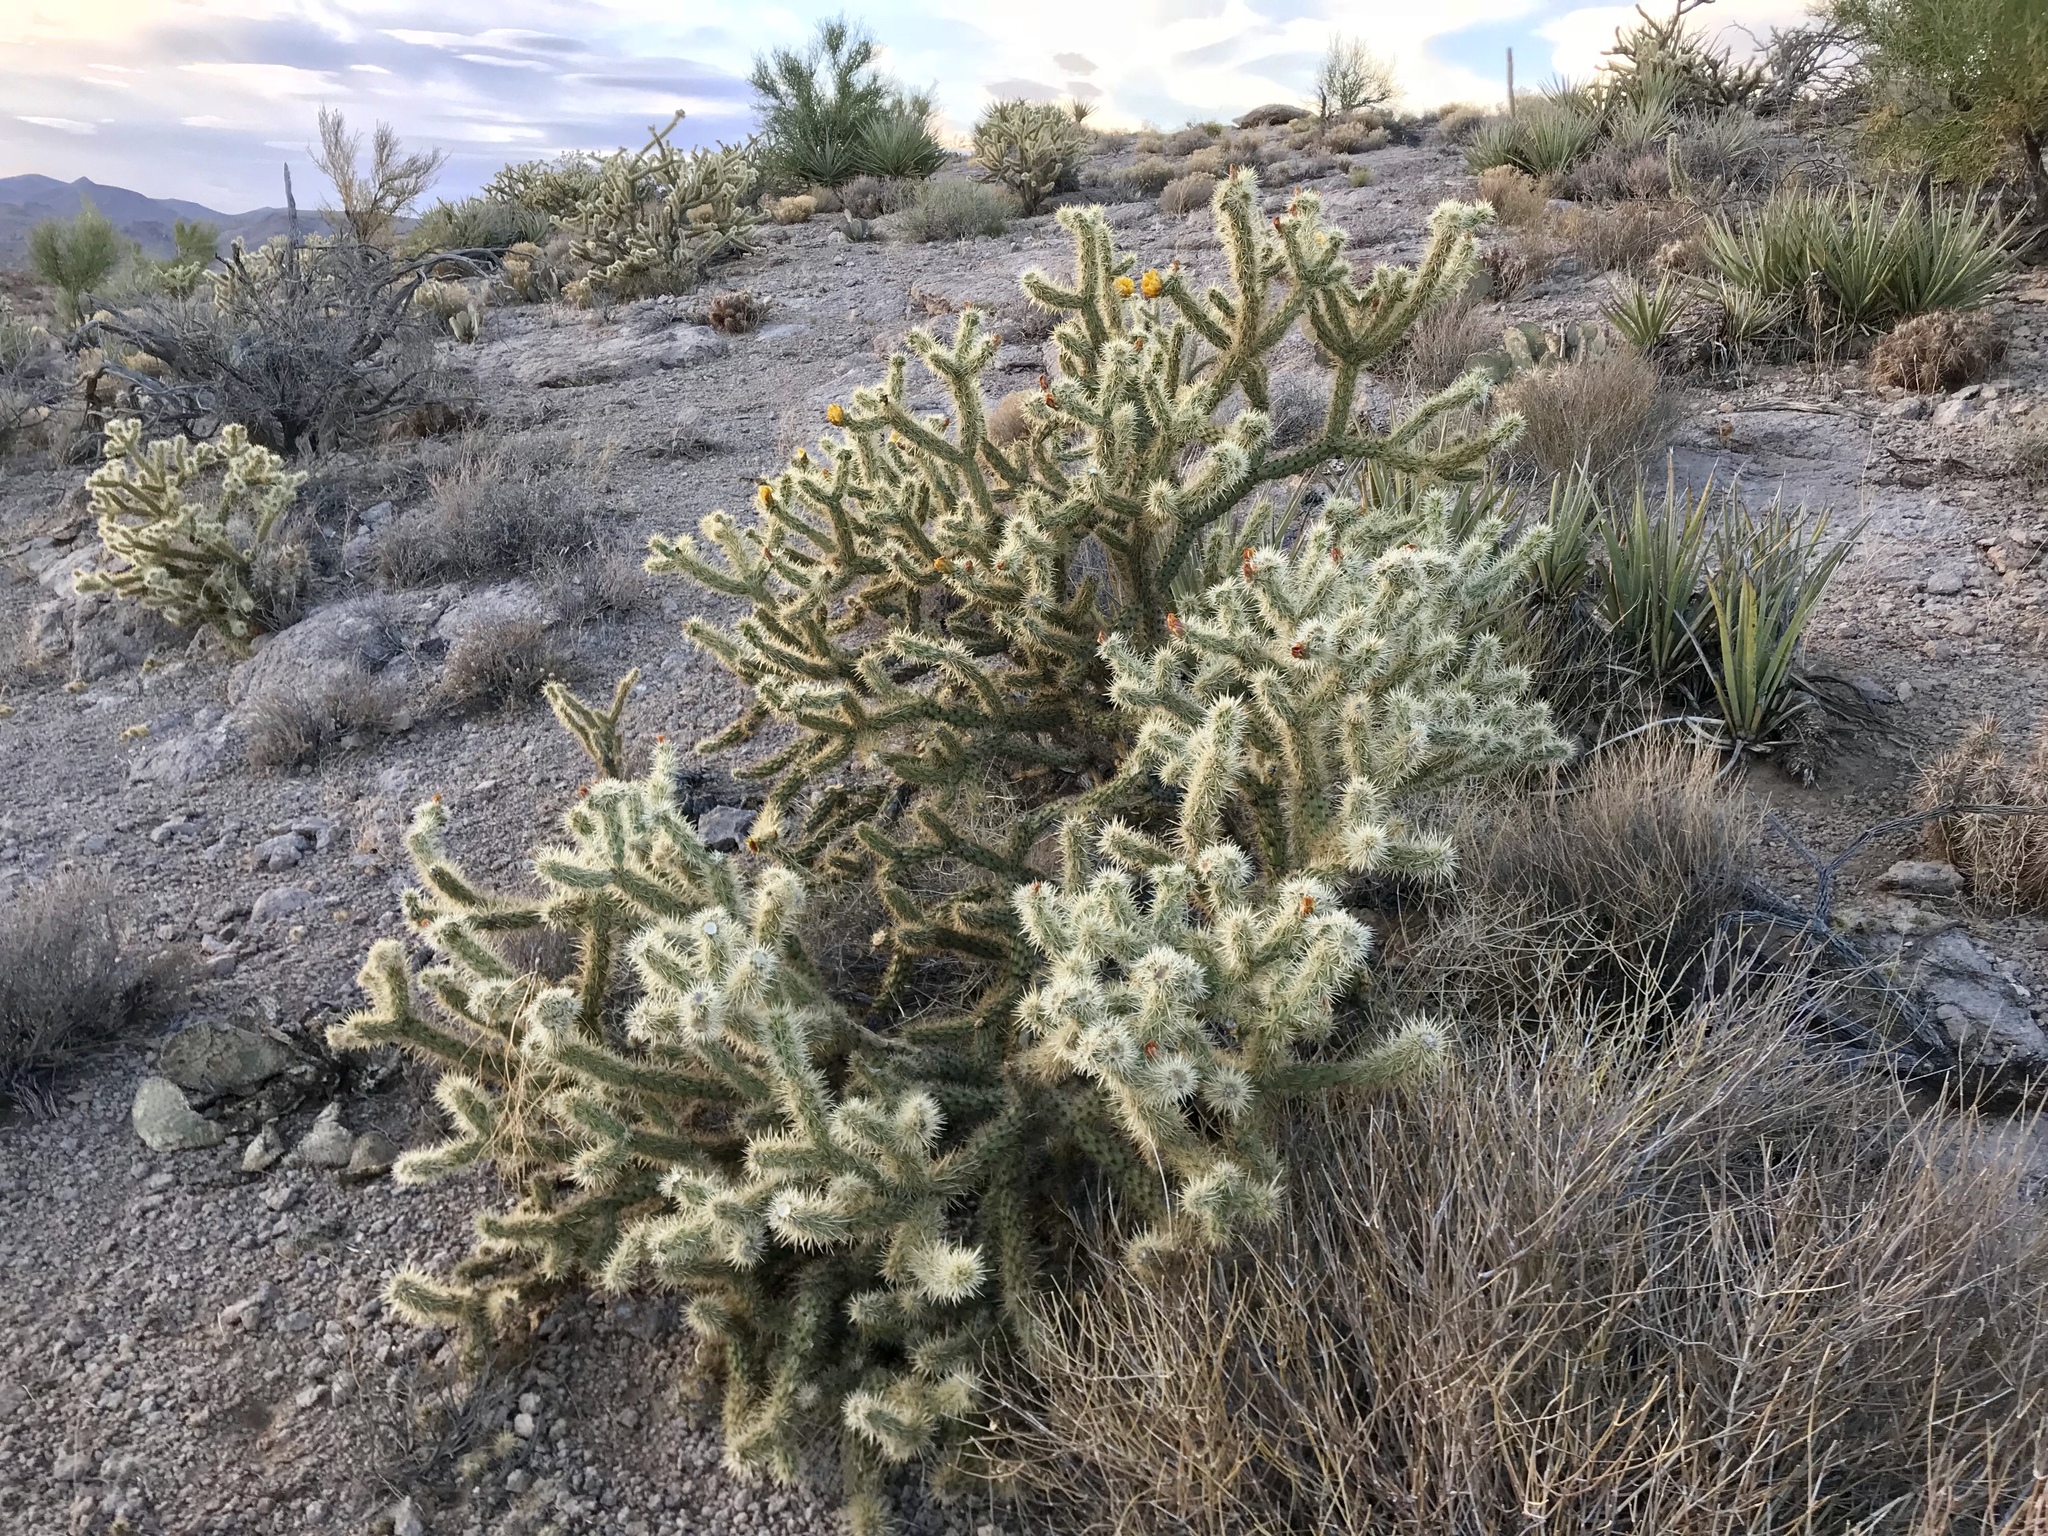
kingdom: Plantae
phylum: Tracheophyta
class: Magnoliopsida
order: Caryophyllales
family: Cactaceae
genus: Cylindropuntia
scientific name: Cylindropuntia echinocarpa
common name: Ground cholla
